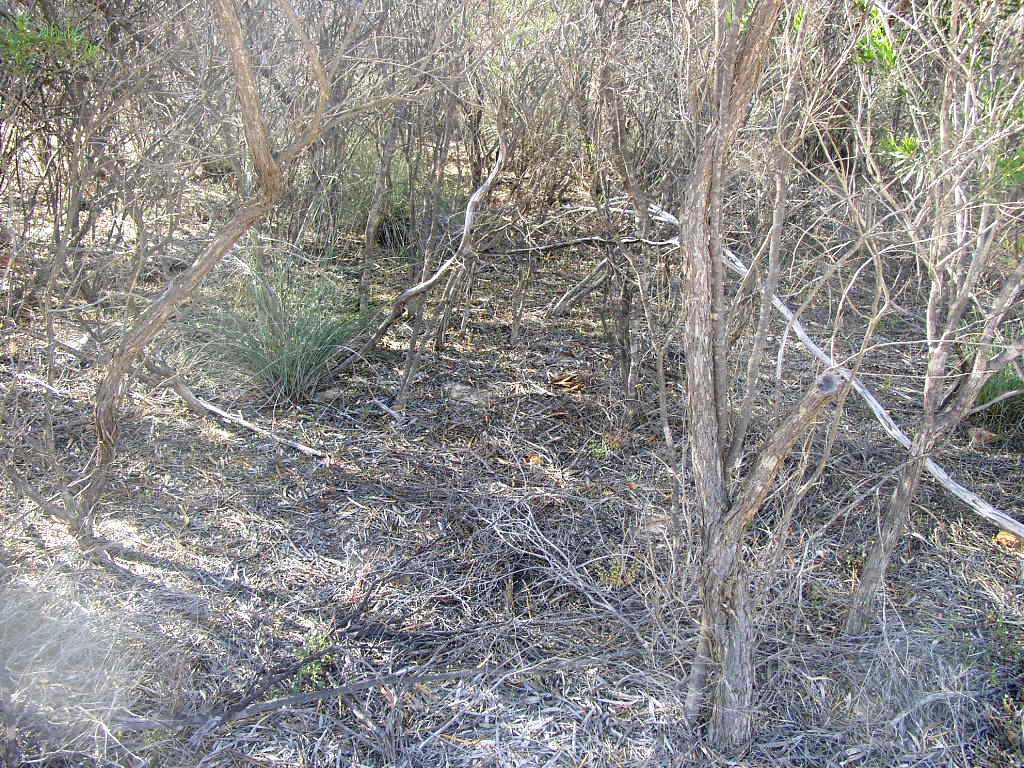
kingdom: Plantae
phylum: Tracheophyta
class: Liliopsida
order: Poales
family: Ecdeiocoleaceae
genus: Ecdeiocolea
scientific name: Ecdeiocolea monostachya
